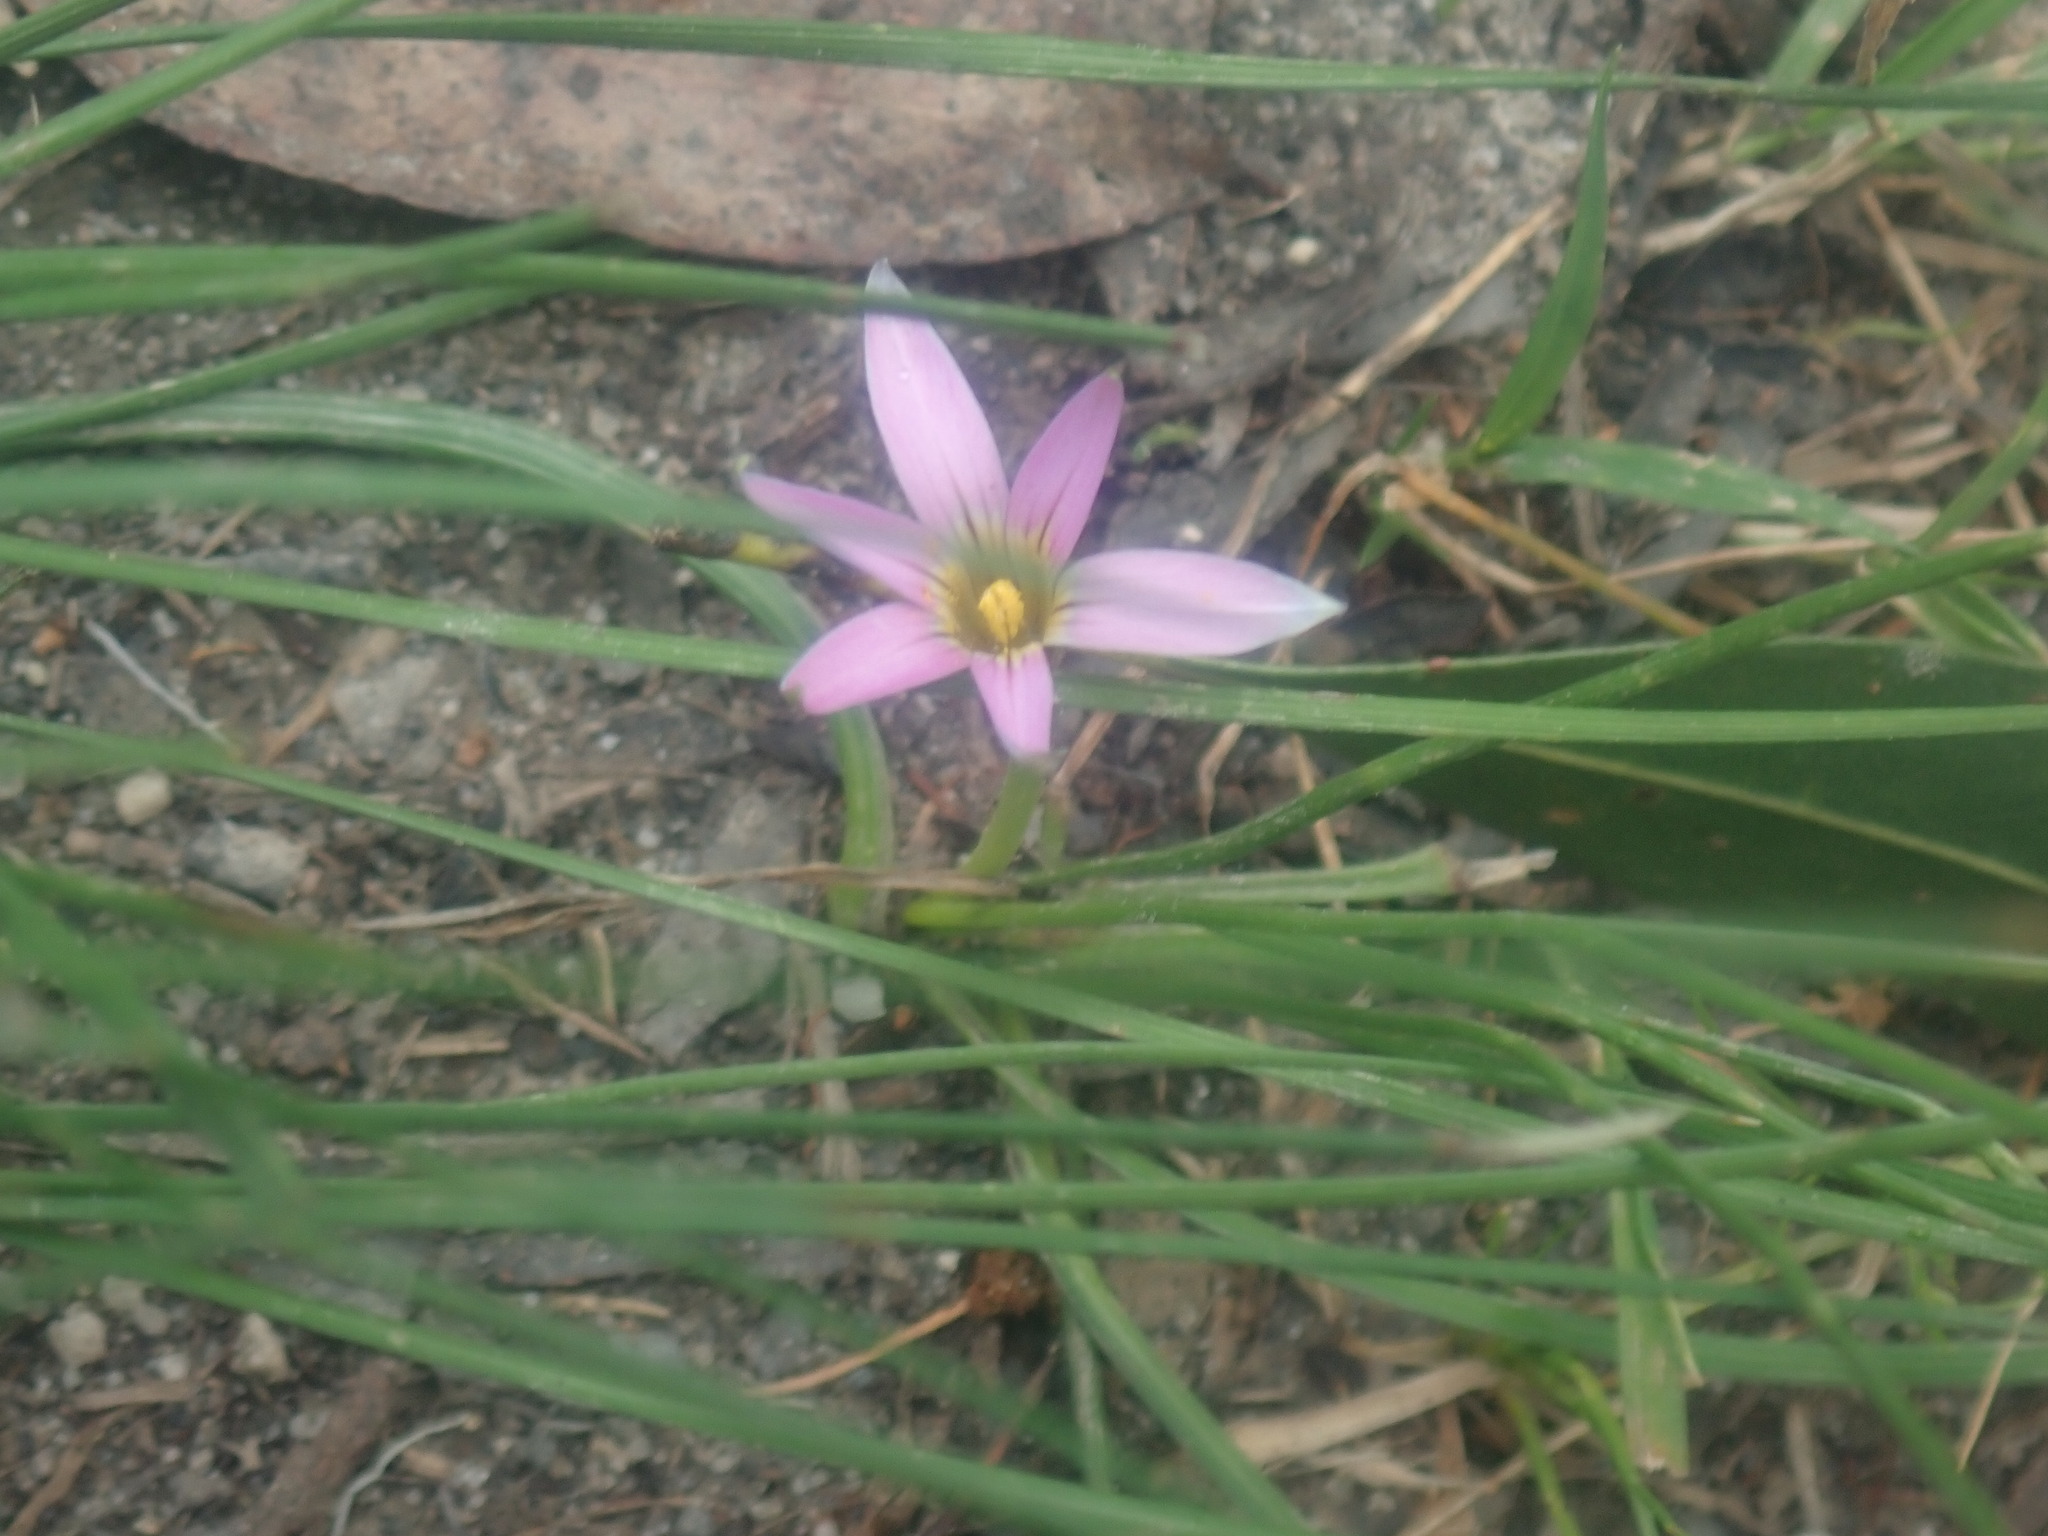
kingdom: Plantae
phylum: Tracheophyta
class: Liliopsida
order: Asparagales
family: Iridaceae
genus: Romulea
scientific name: Romulea rosea
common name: Oniongrass
